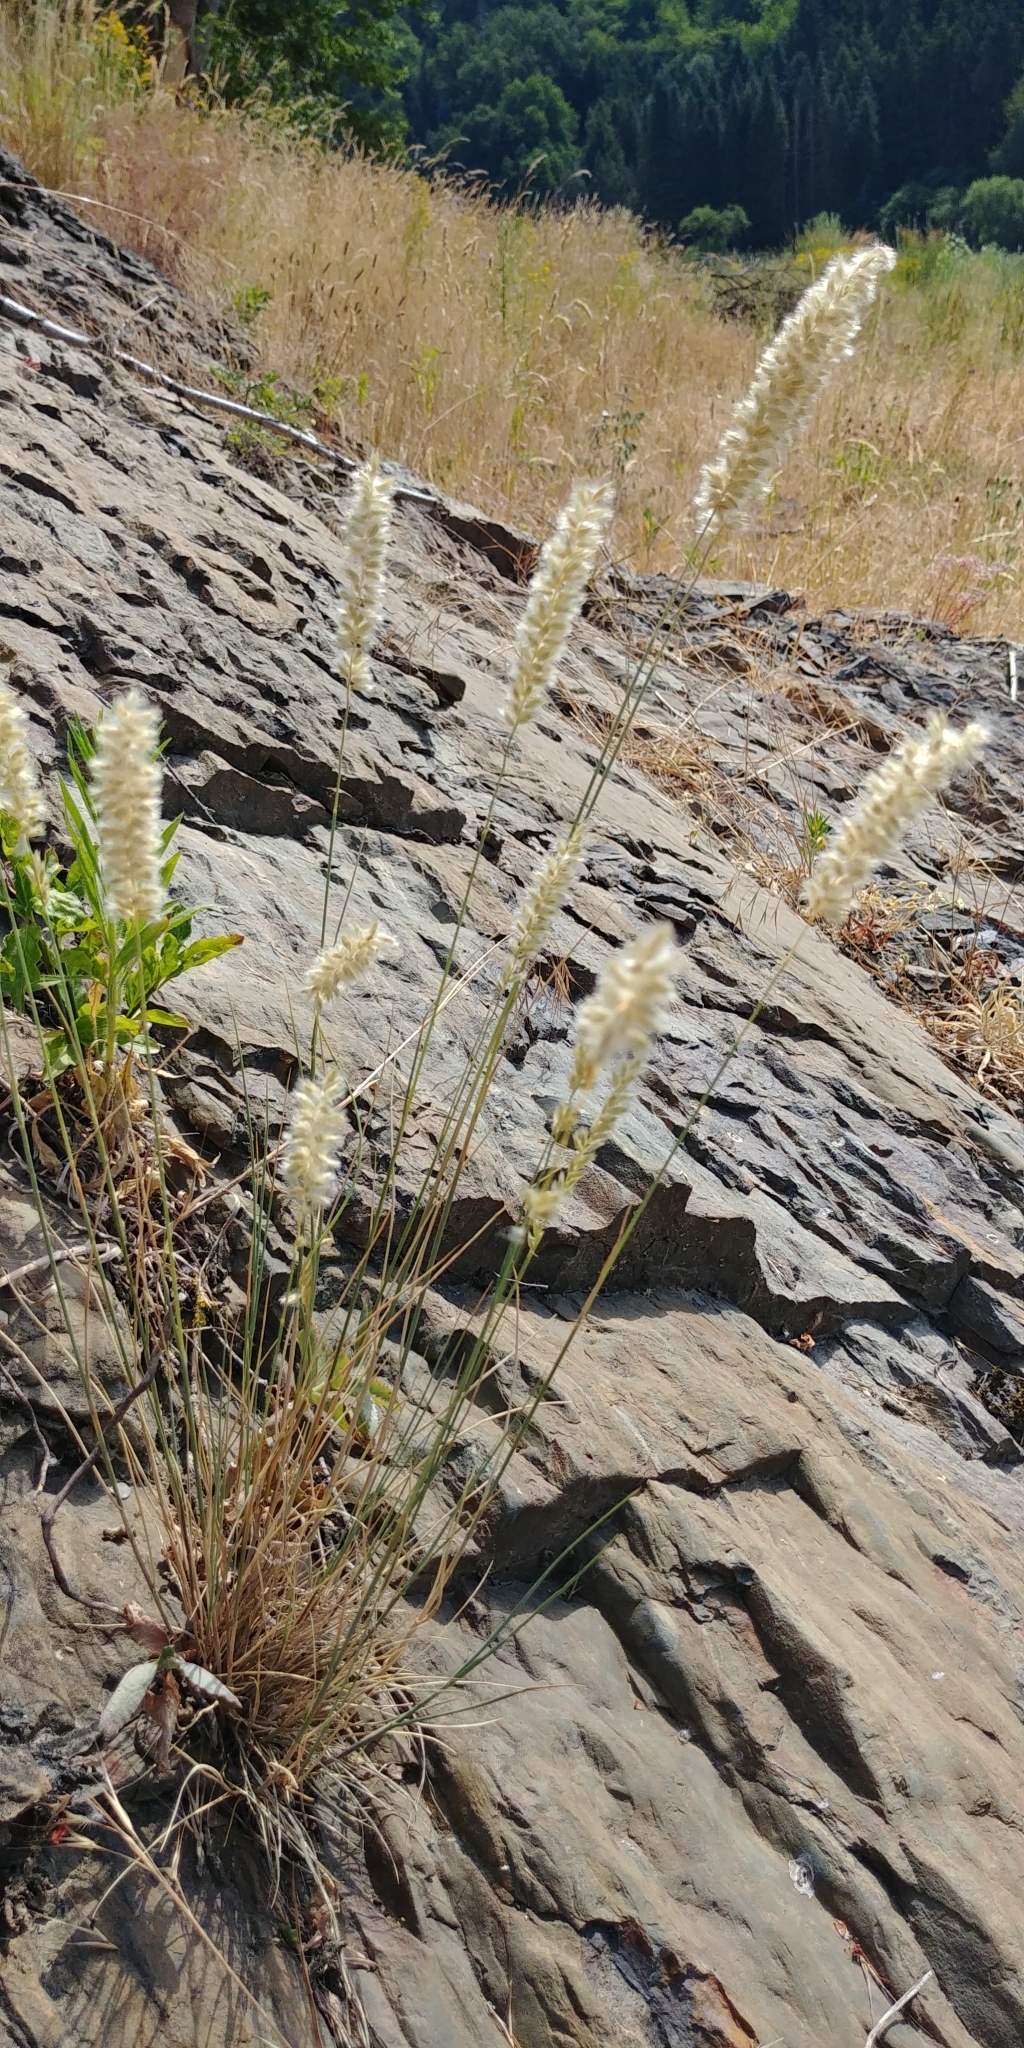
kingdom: Plantae
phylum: Tracheophyta
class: Liliopsida
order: Poales
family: Poaceae
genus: Melica
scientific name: Melica ciliata
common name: Hairy melicgrass
